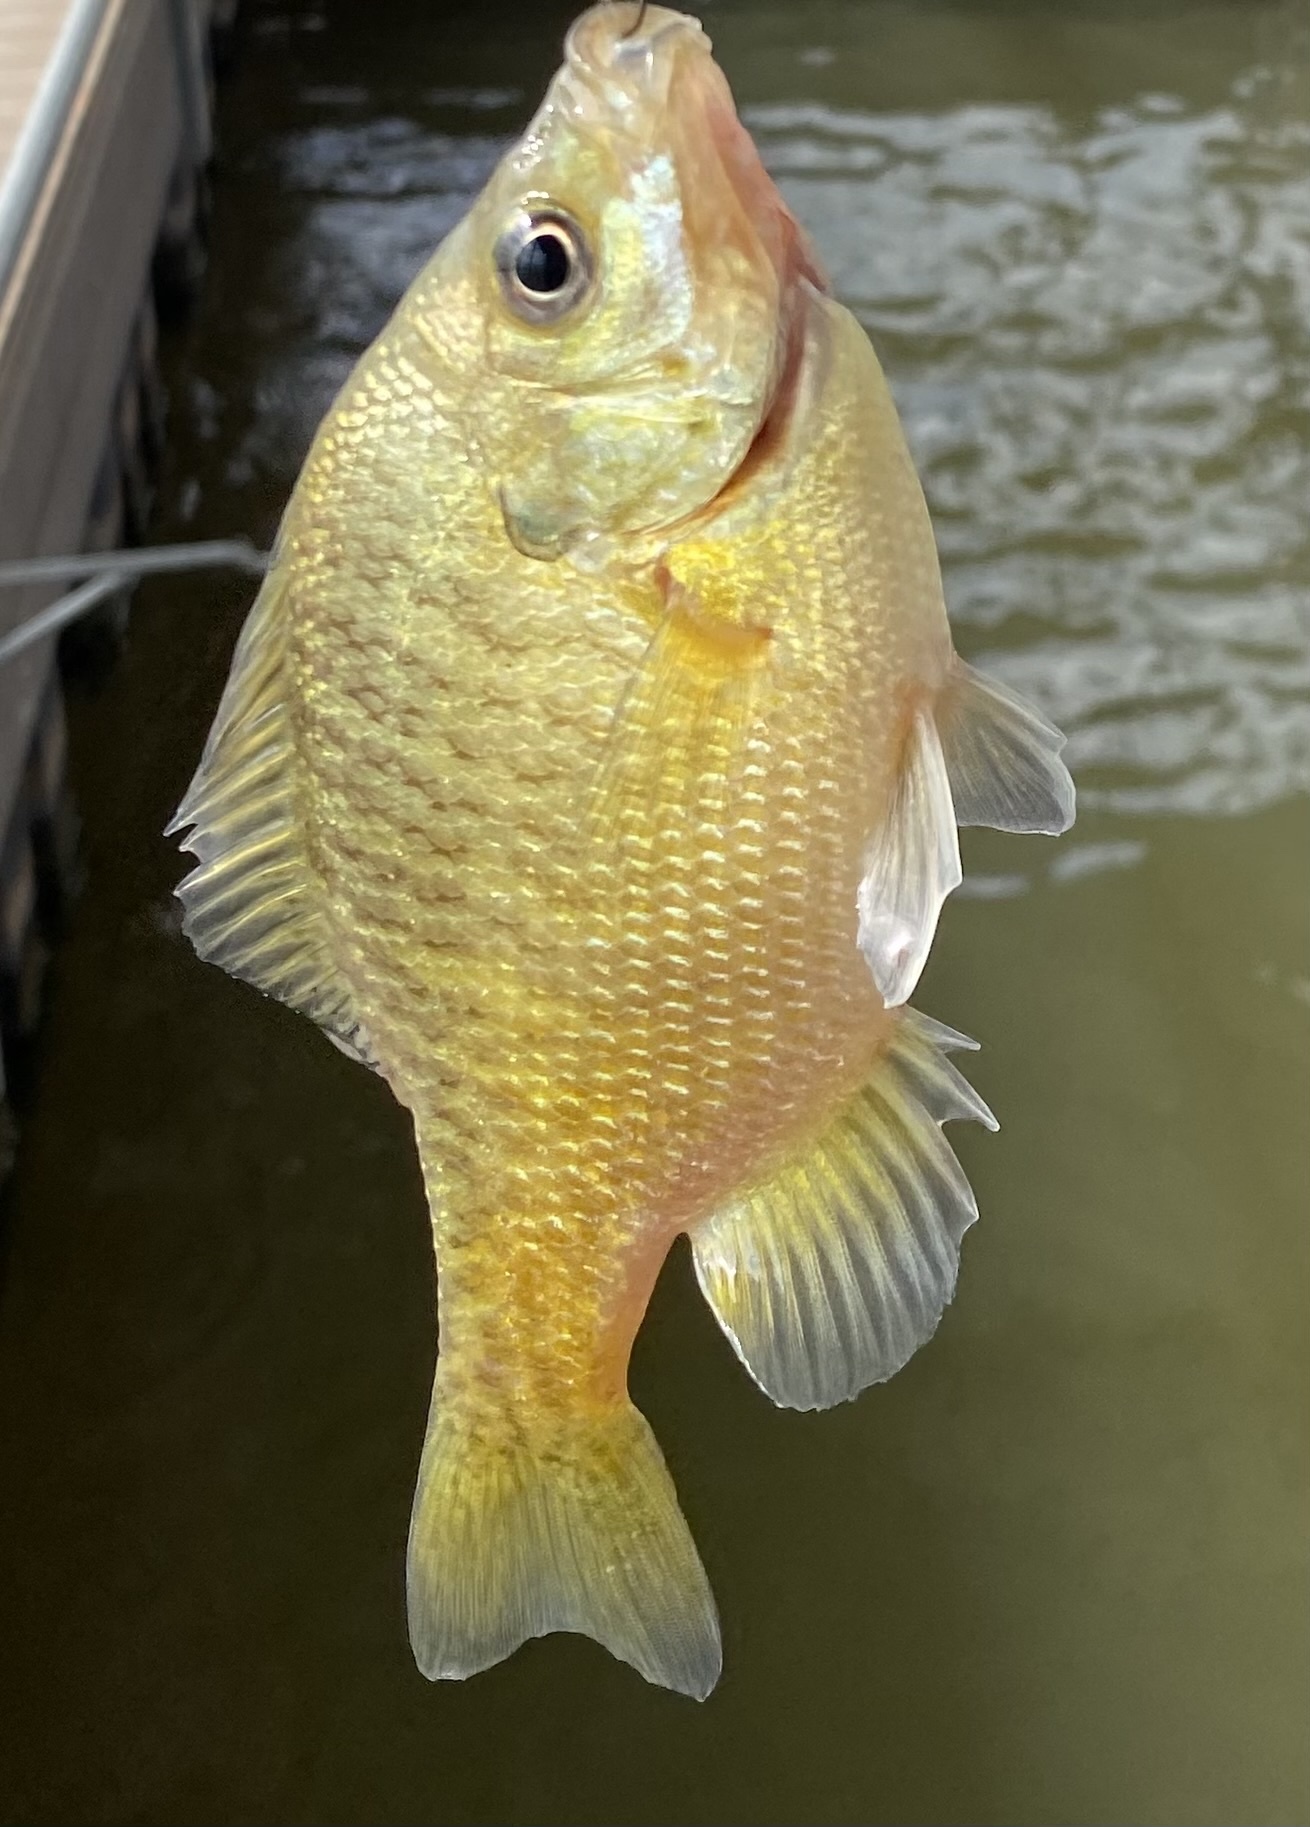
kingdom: Animalia
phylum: Chordata
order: Perciformes
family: Centrarchidae
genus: Lepomis
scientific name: Lepomis macrochirus
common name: Bluegill
